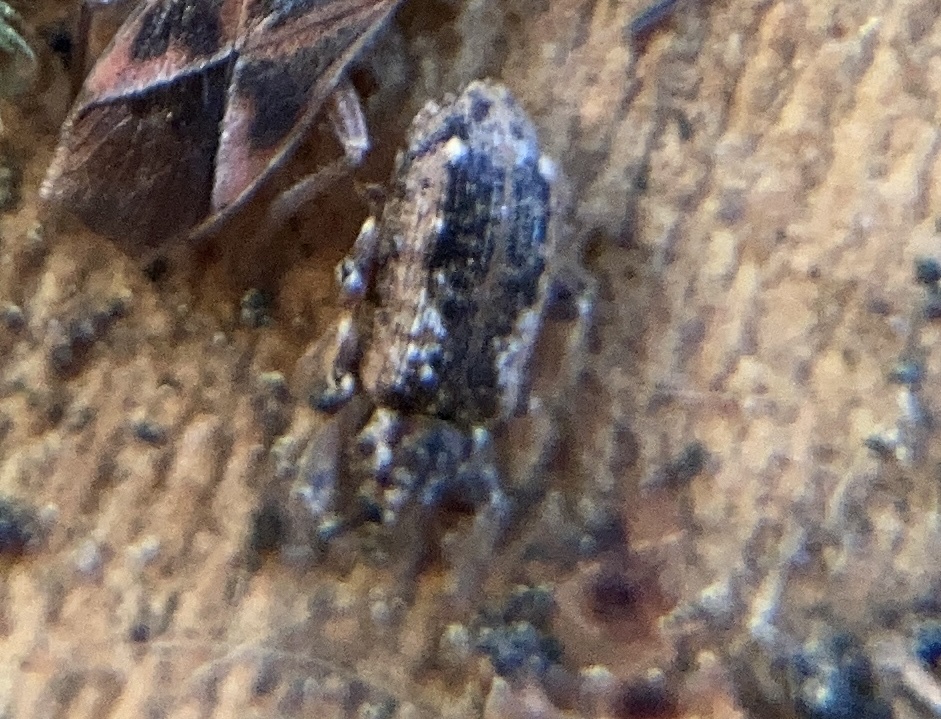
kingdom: Animalia
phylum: Arthropoda
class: Insecta
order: Coleoptera
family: Curculionidae
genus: Dorytomus
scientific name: Dorytomus ictor
